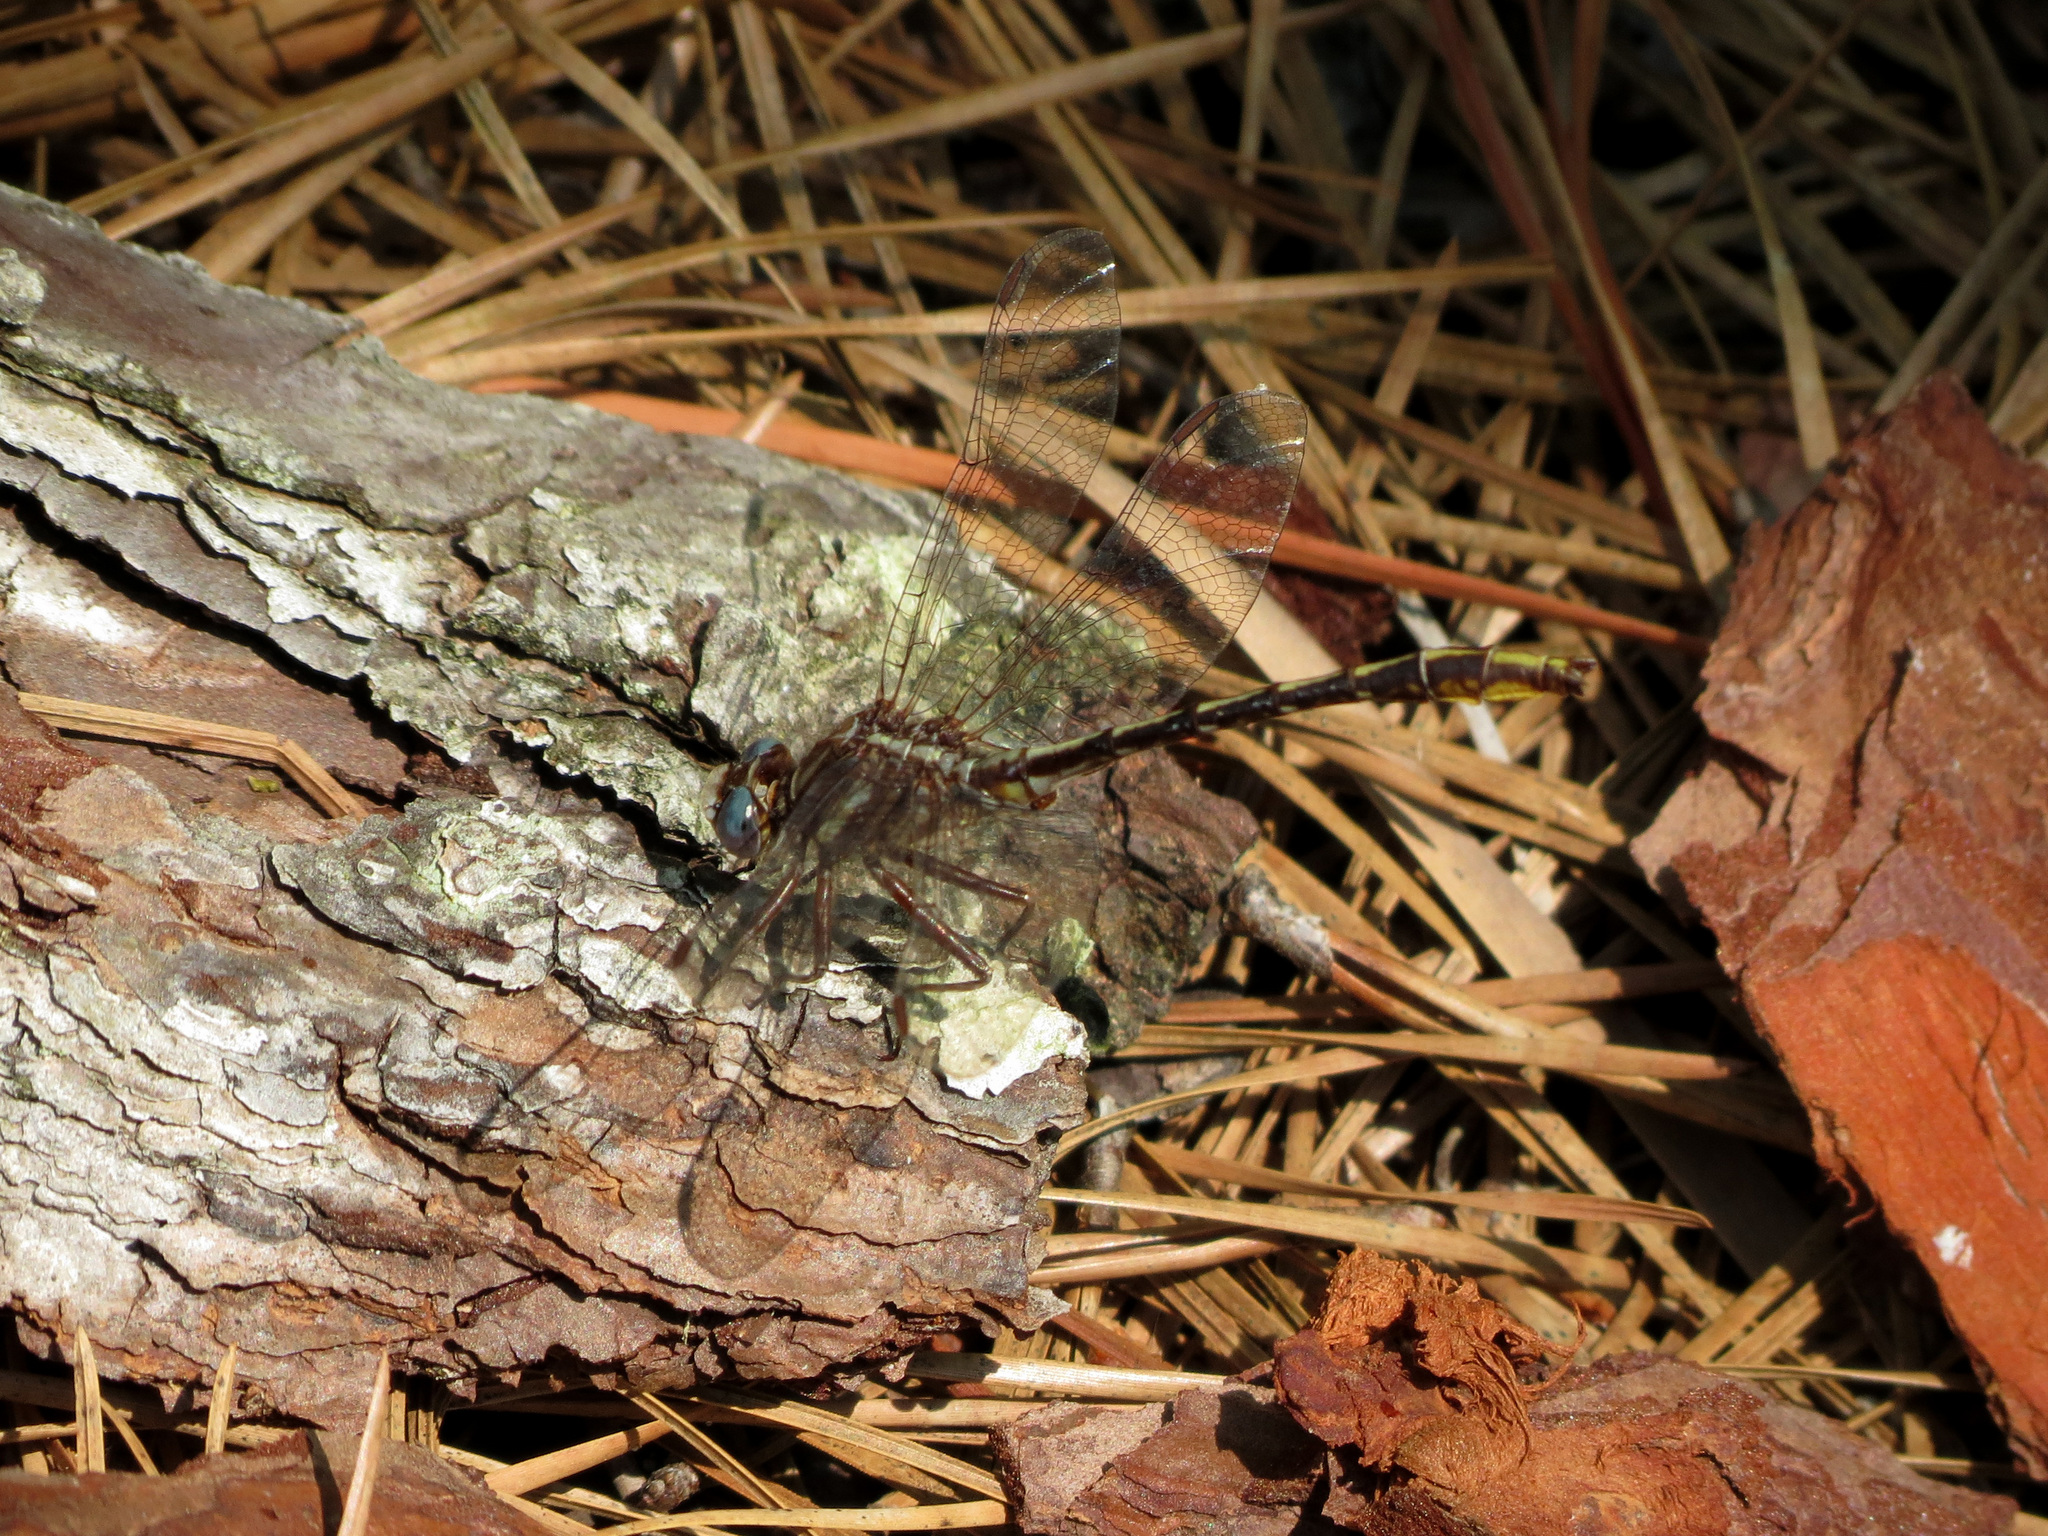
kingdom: Animalia
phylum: Arthropoda
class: Insecta
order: Odonata
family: Gomphidae
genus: Phanogomphus
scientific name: Phanogomphus exilis
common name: Lancet clubtail
